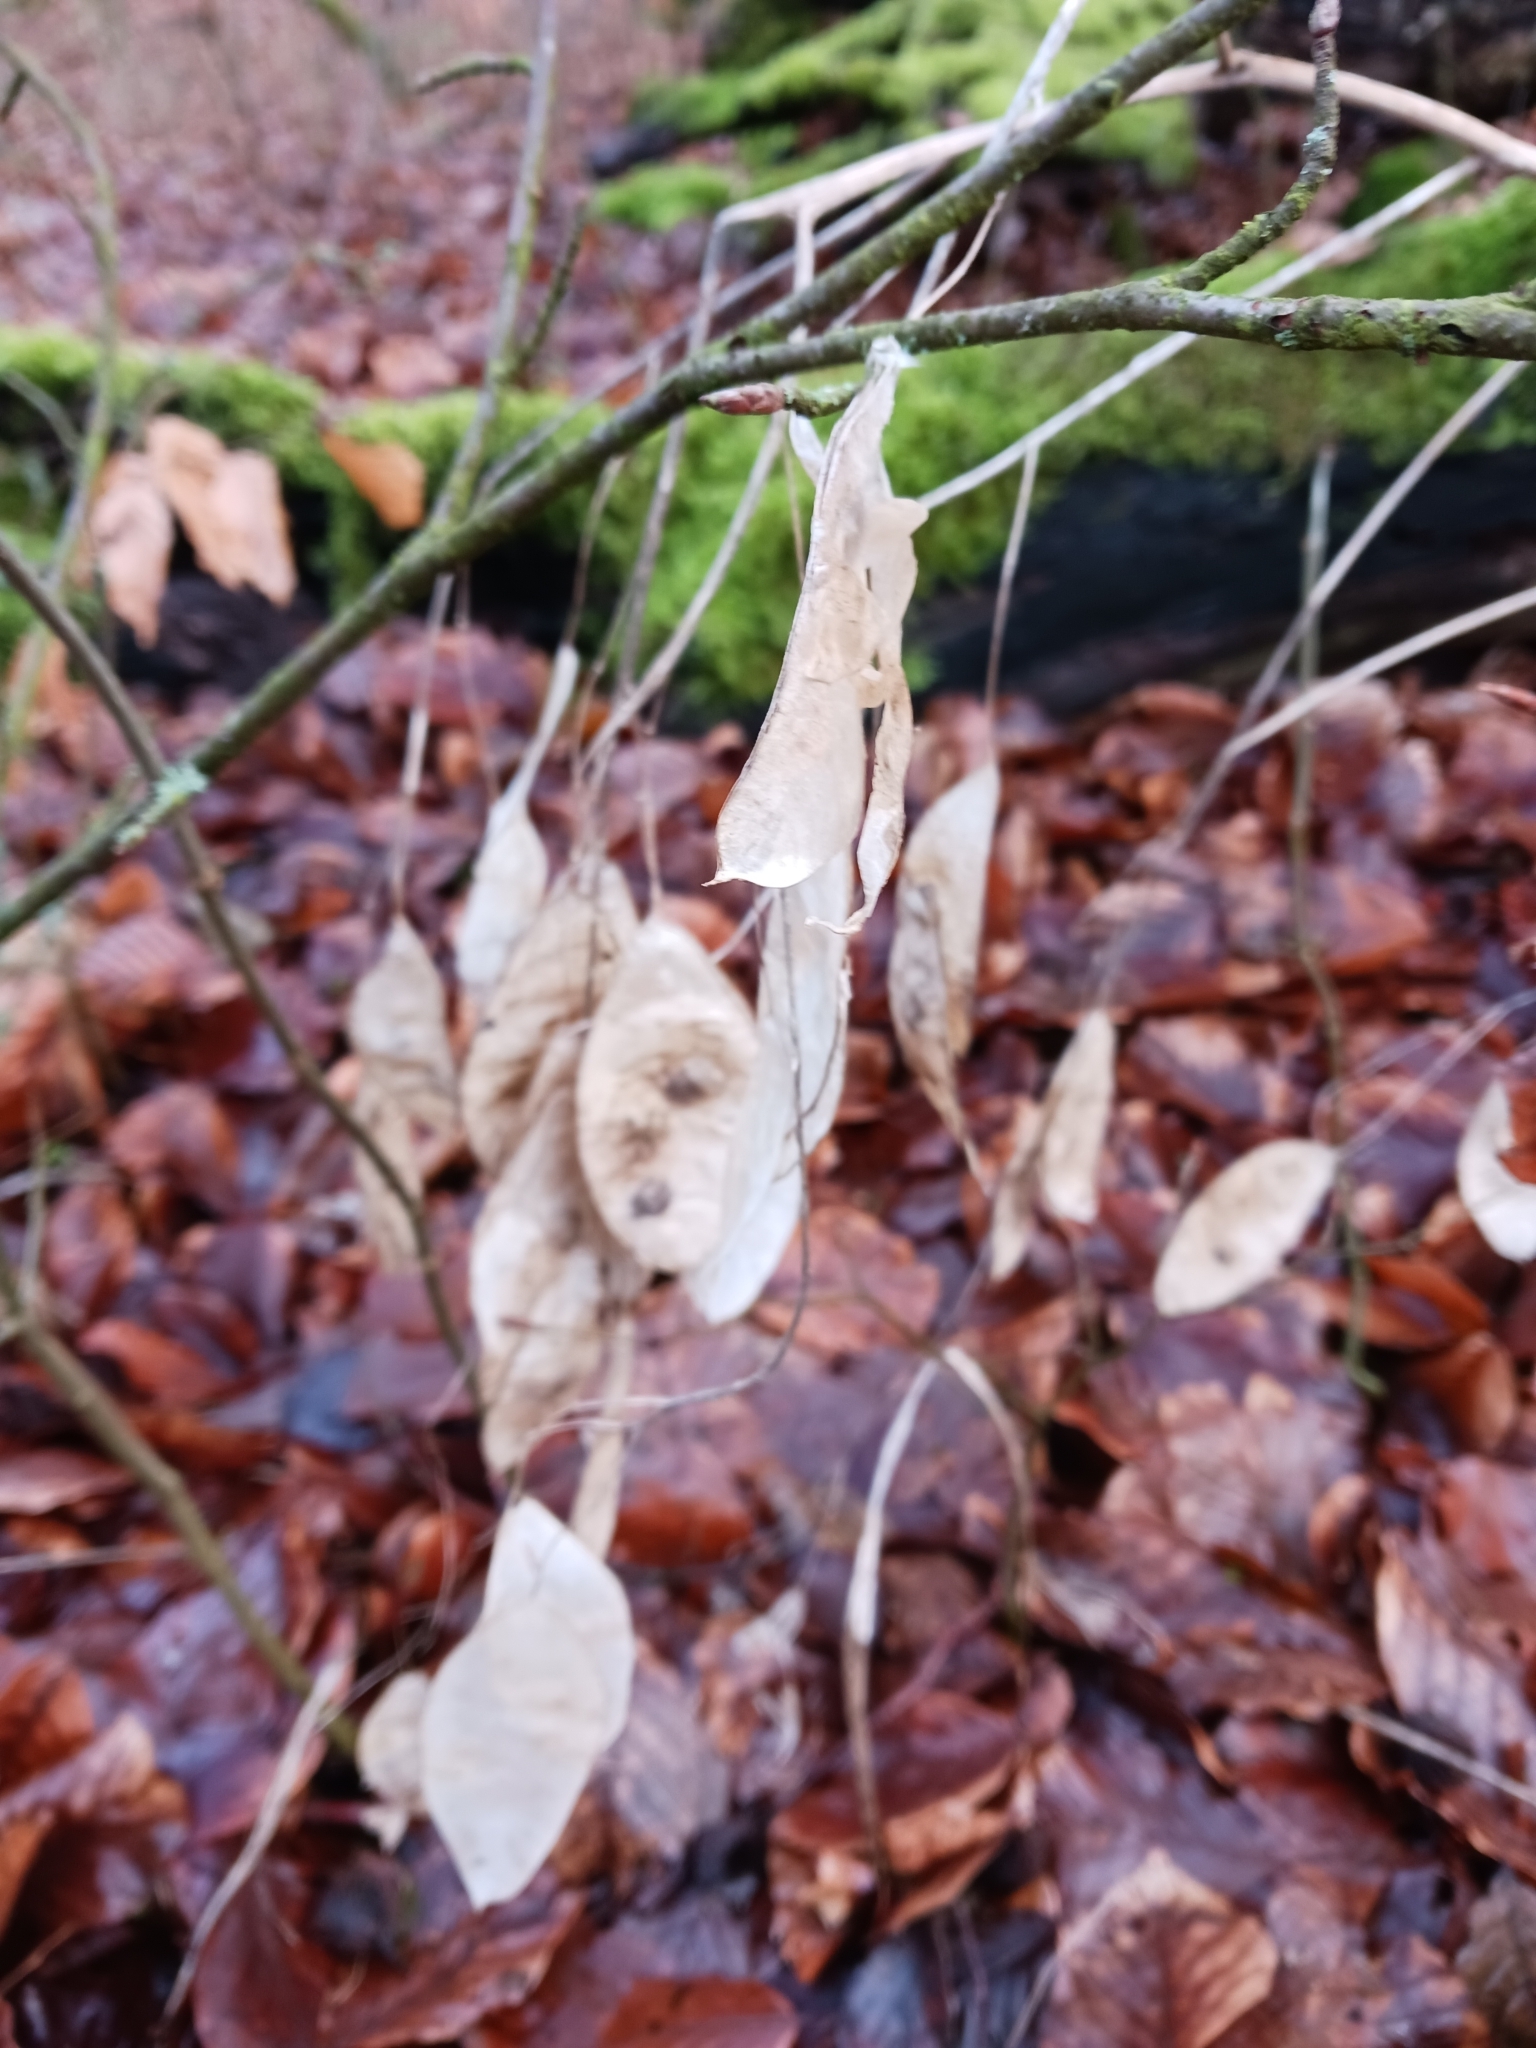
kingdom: Plantae
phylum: Tracheophyta
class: Magnoliopsida
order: Brassicales
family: Brassicaceae
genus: Lunaria
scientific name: Lunaria rediviva
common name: Perennial honesty
